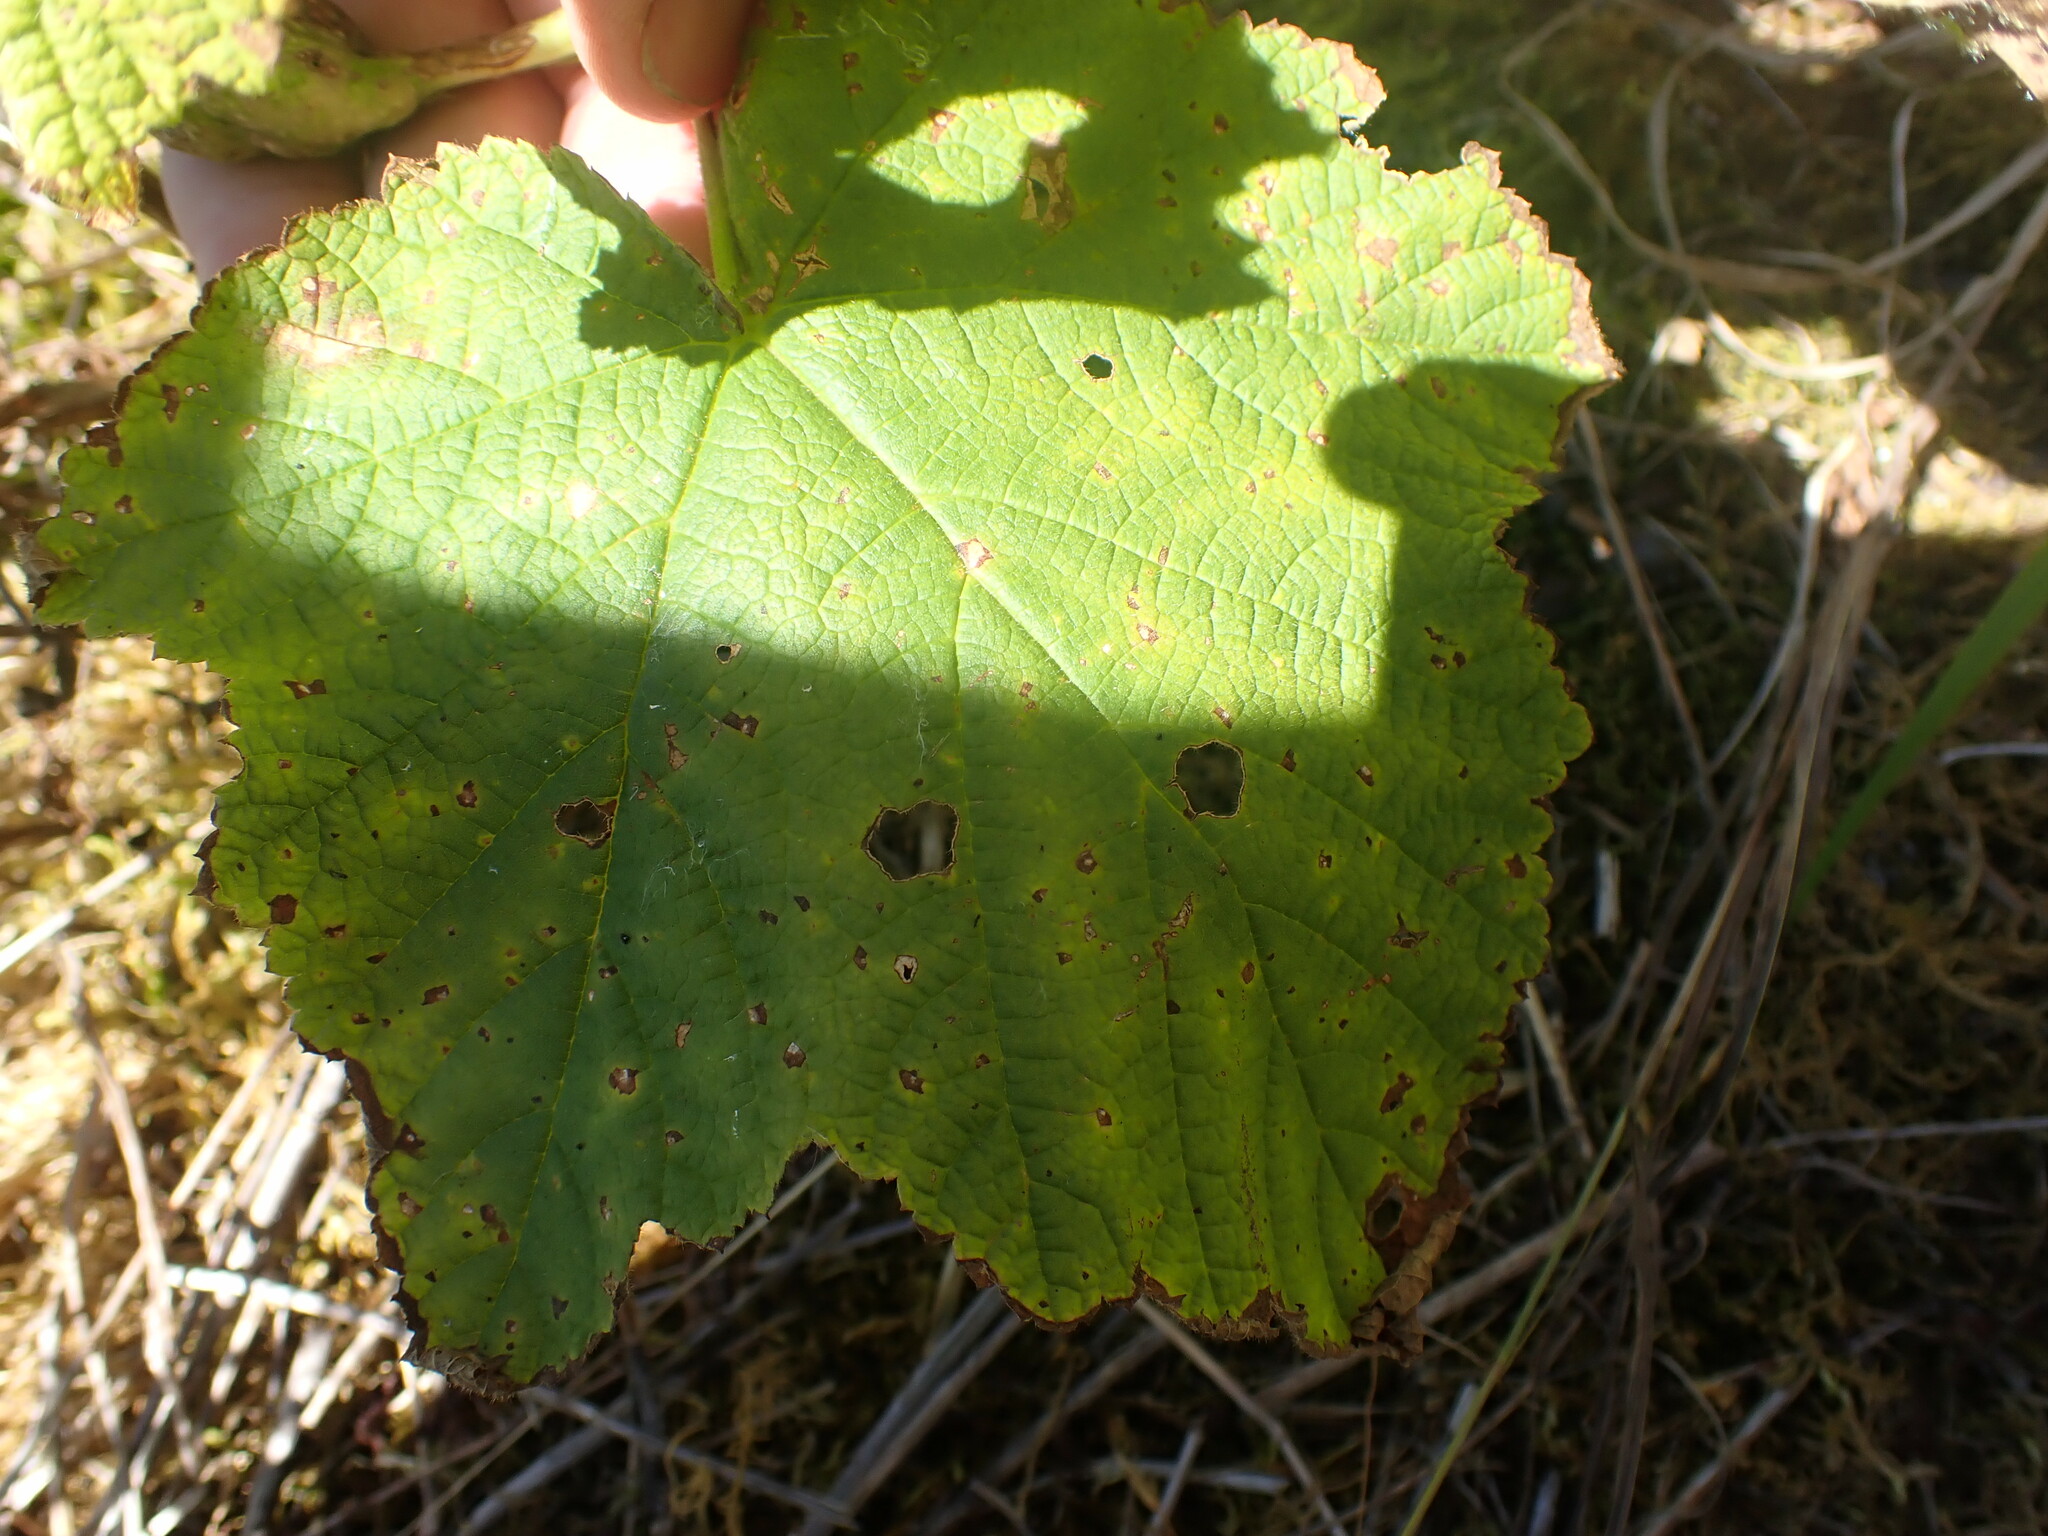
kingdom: Plantae
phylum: Tracheophyta
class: Magnoliopsida
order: Rosales
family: Rosaceae
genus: Rubus
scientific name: Rubus parviflorus
